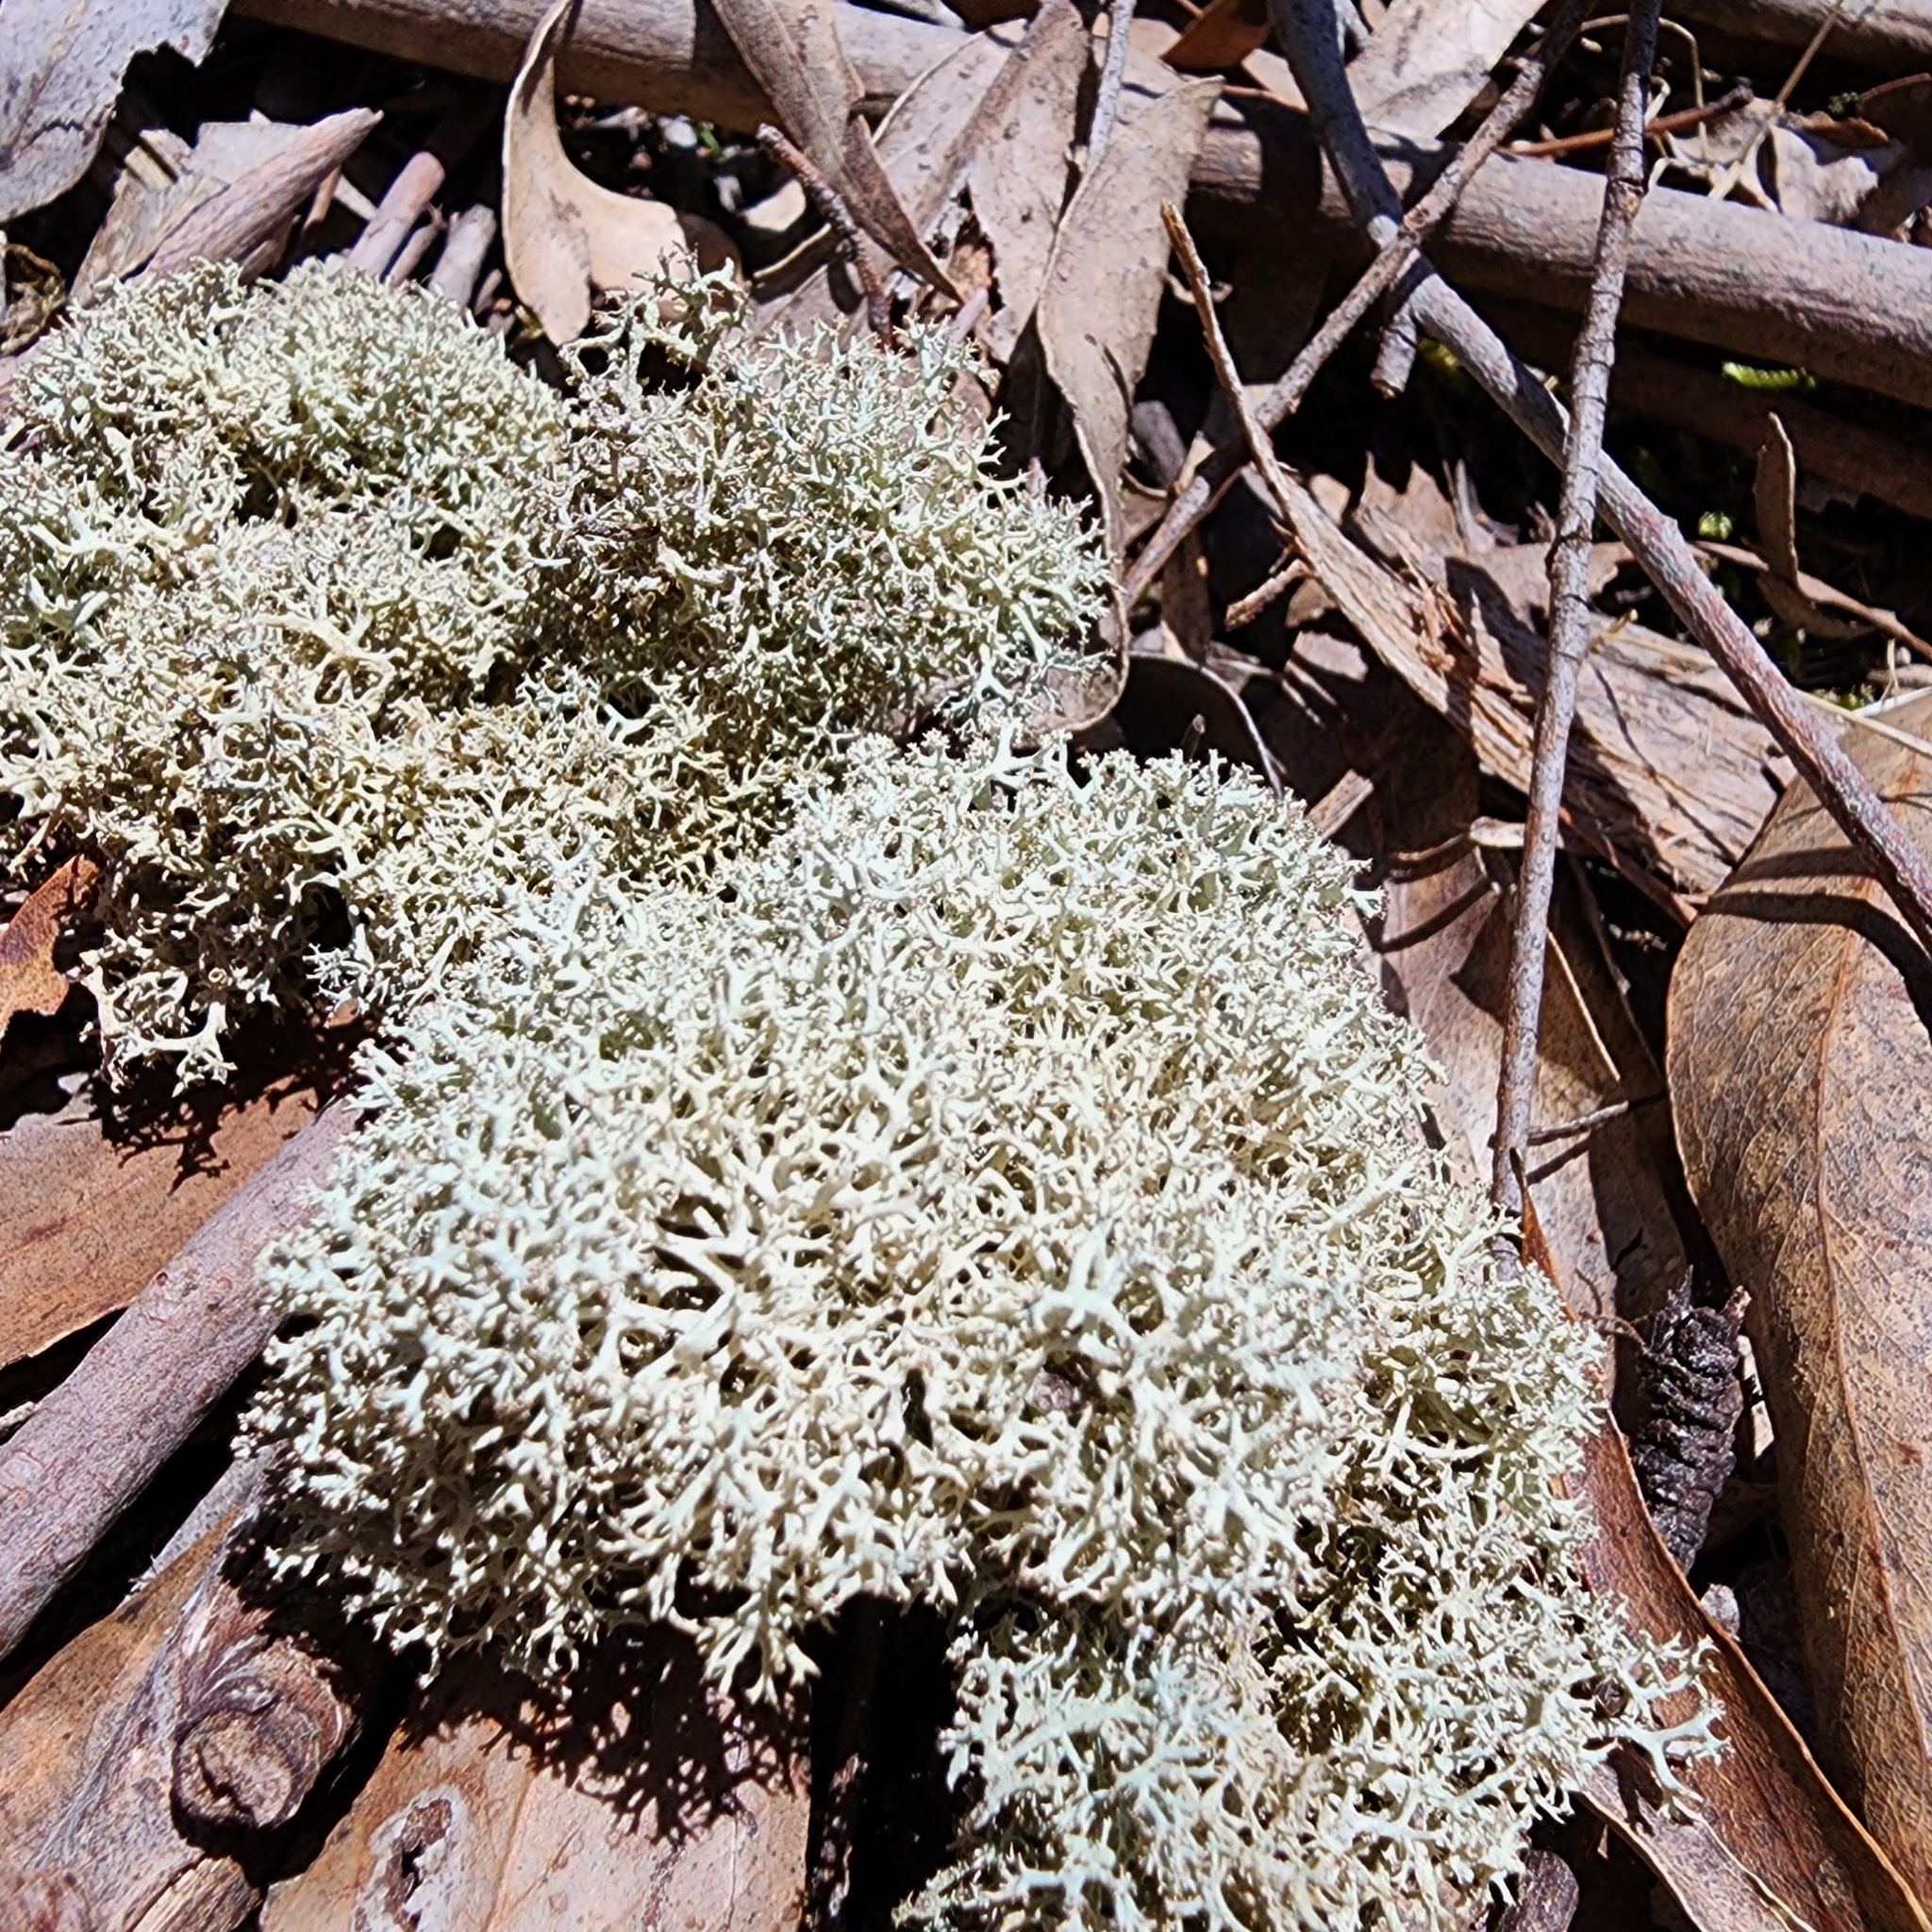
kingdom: Fungi
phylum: Ascomycota
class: Lecanoromycetes
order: Lecanorales
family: Cladoniaceae
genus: Pulchrocladia
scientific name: Pulchrocladia retipora
